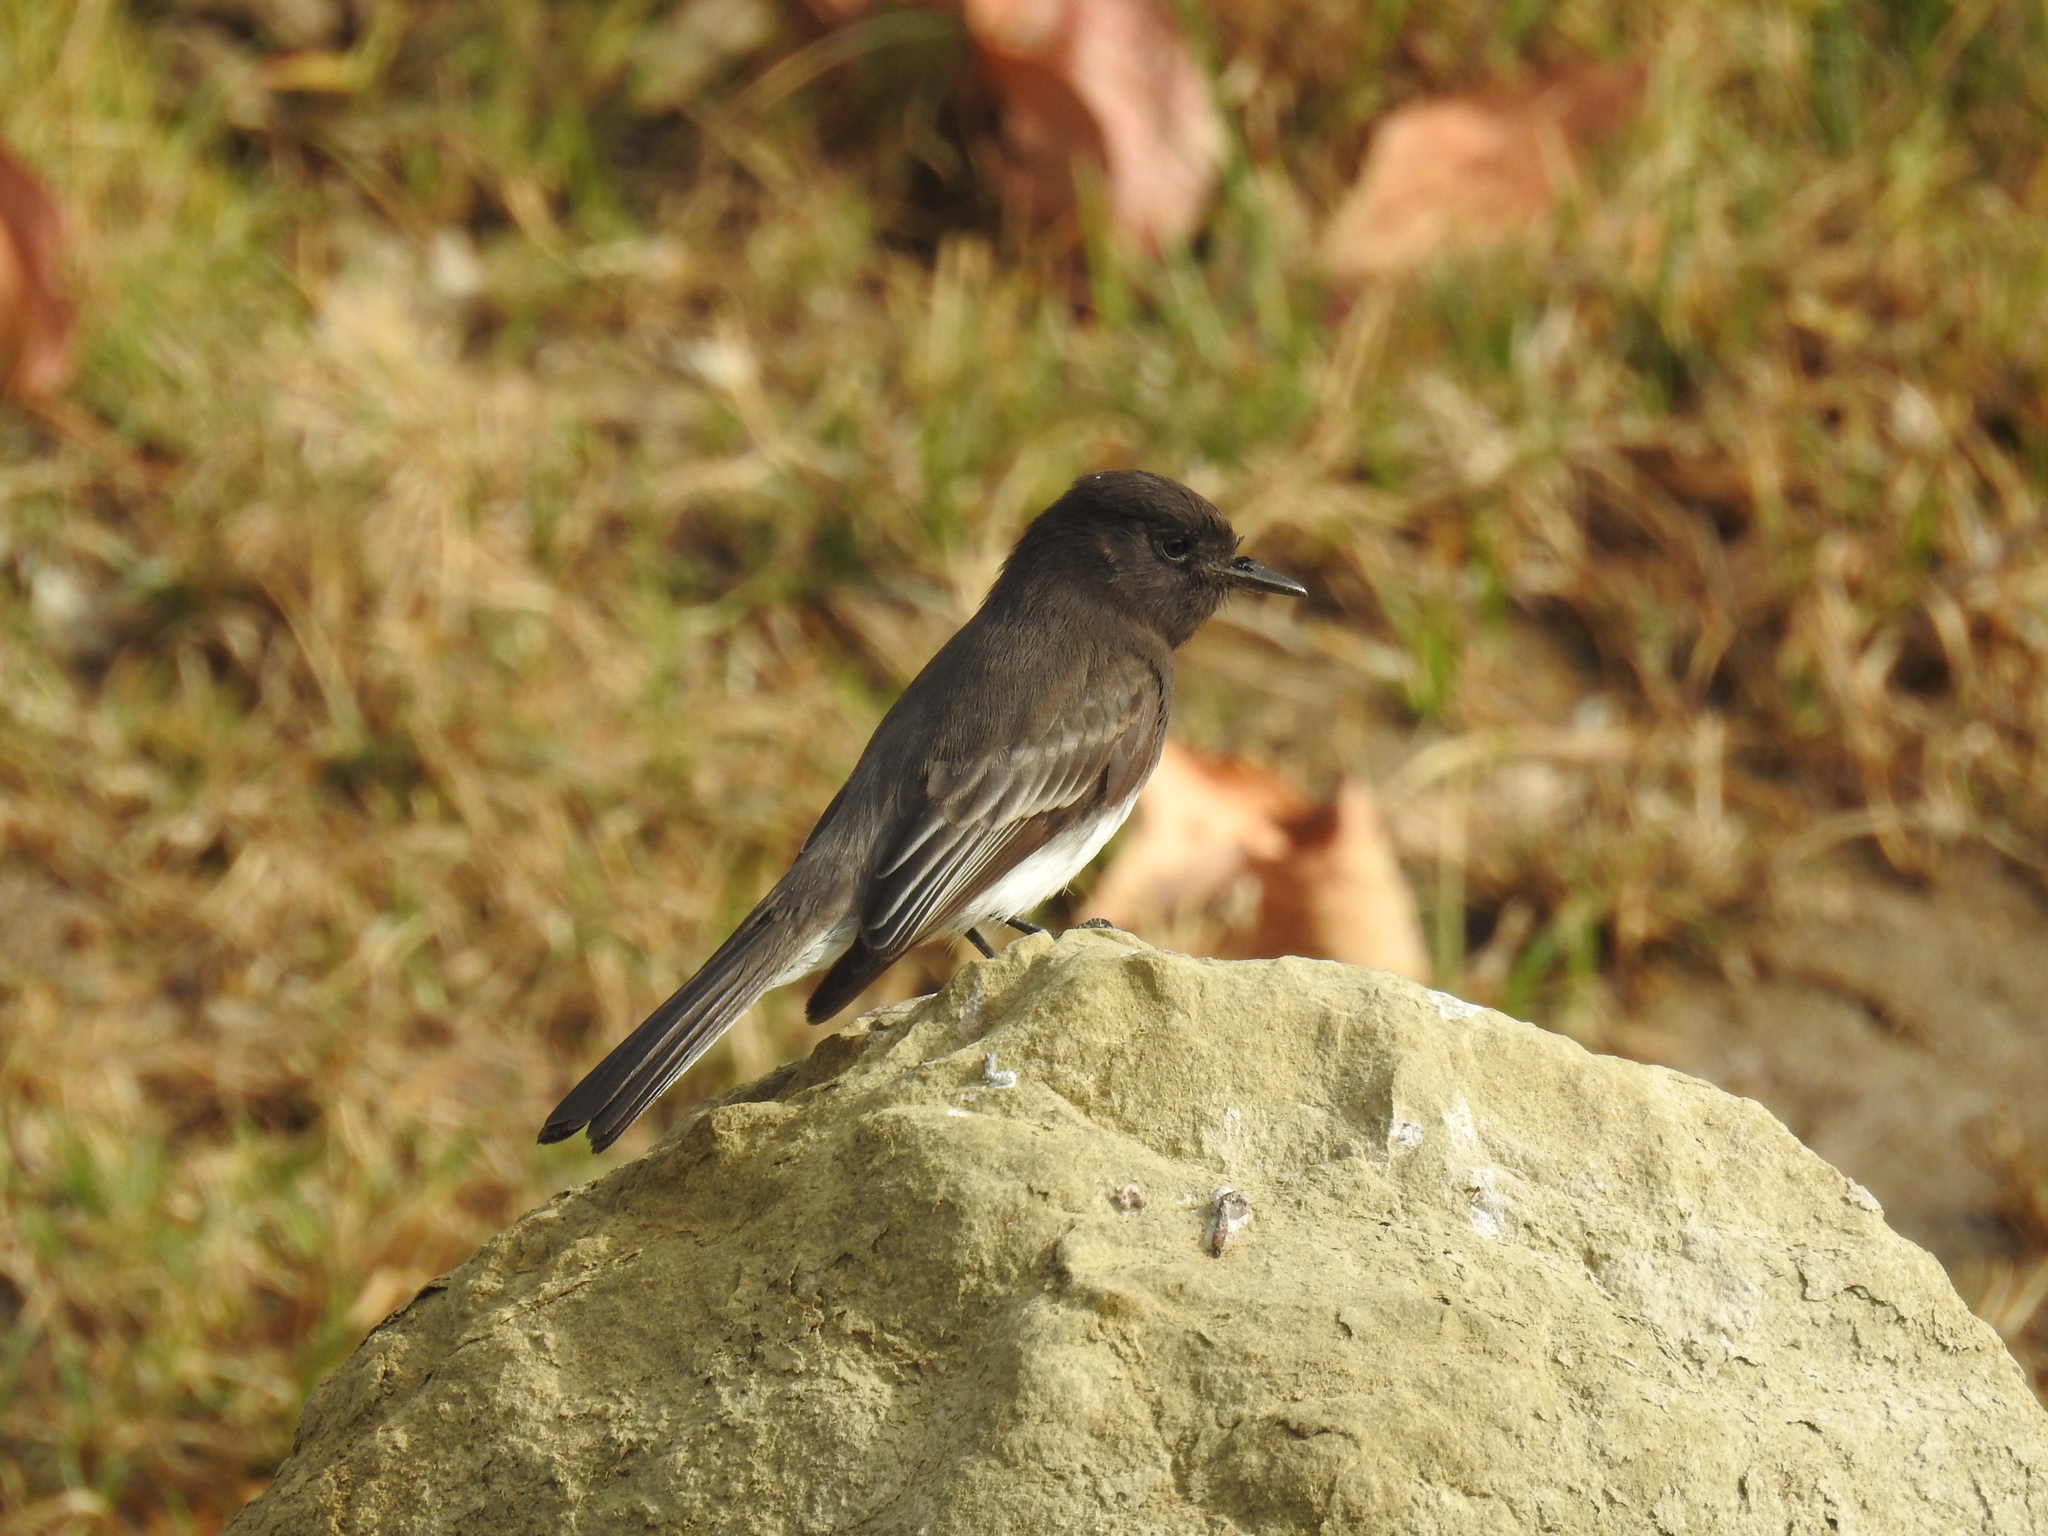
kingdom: Animalia
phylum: Chordata
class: Aves
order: Passeriformes
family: Tyrannidae
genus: Sayornis
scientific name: Sayornis nigricans
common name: Black phoebe
